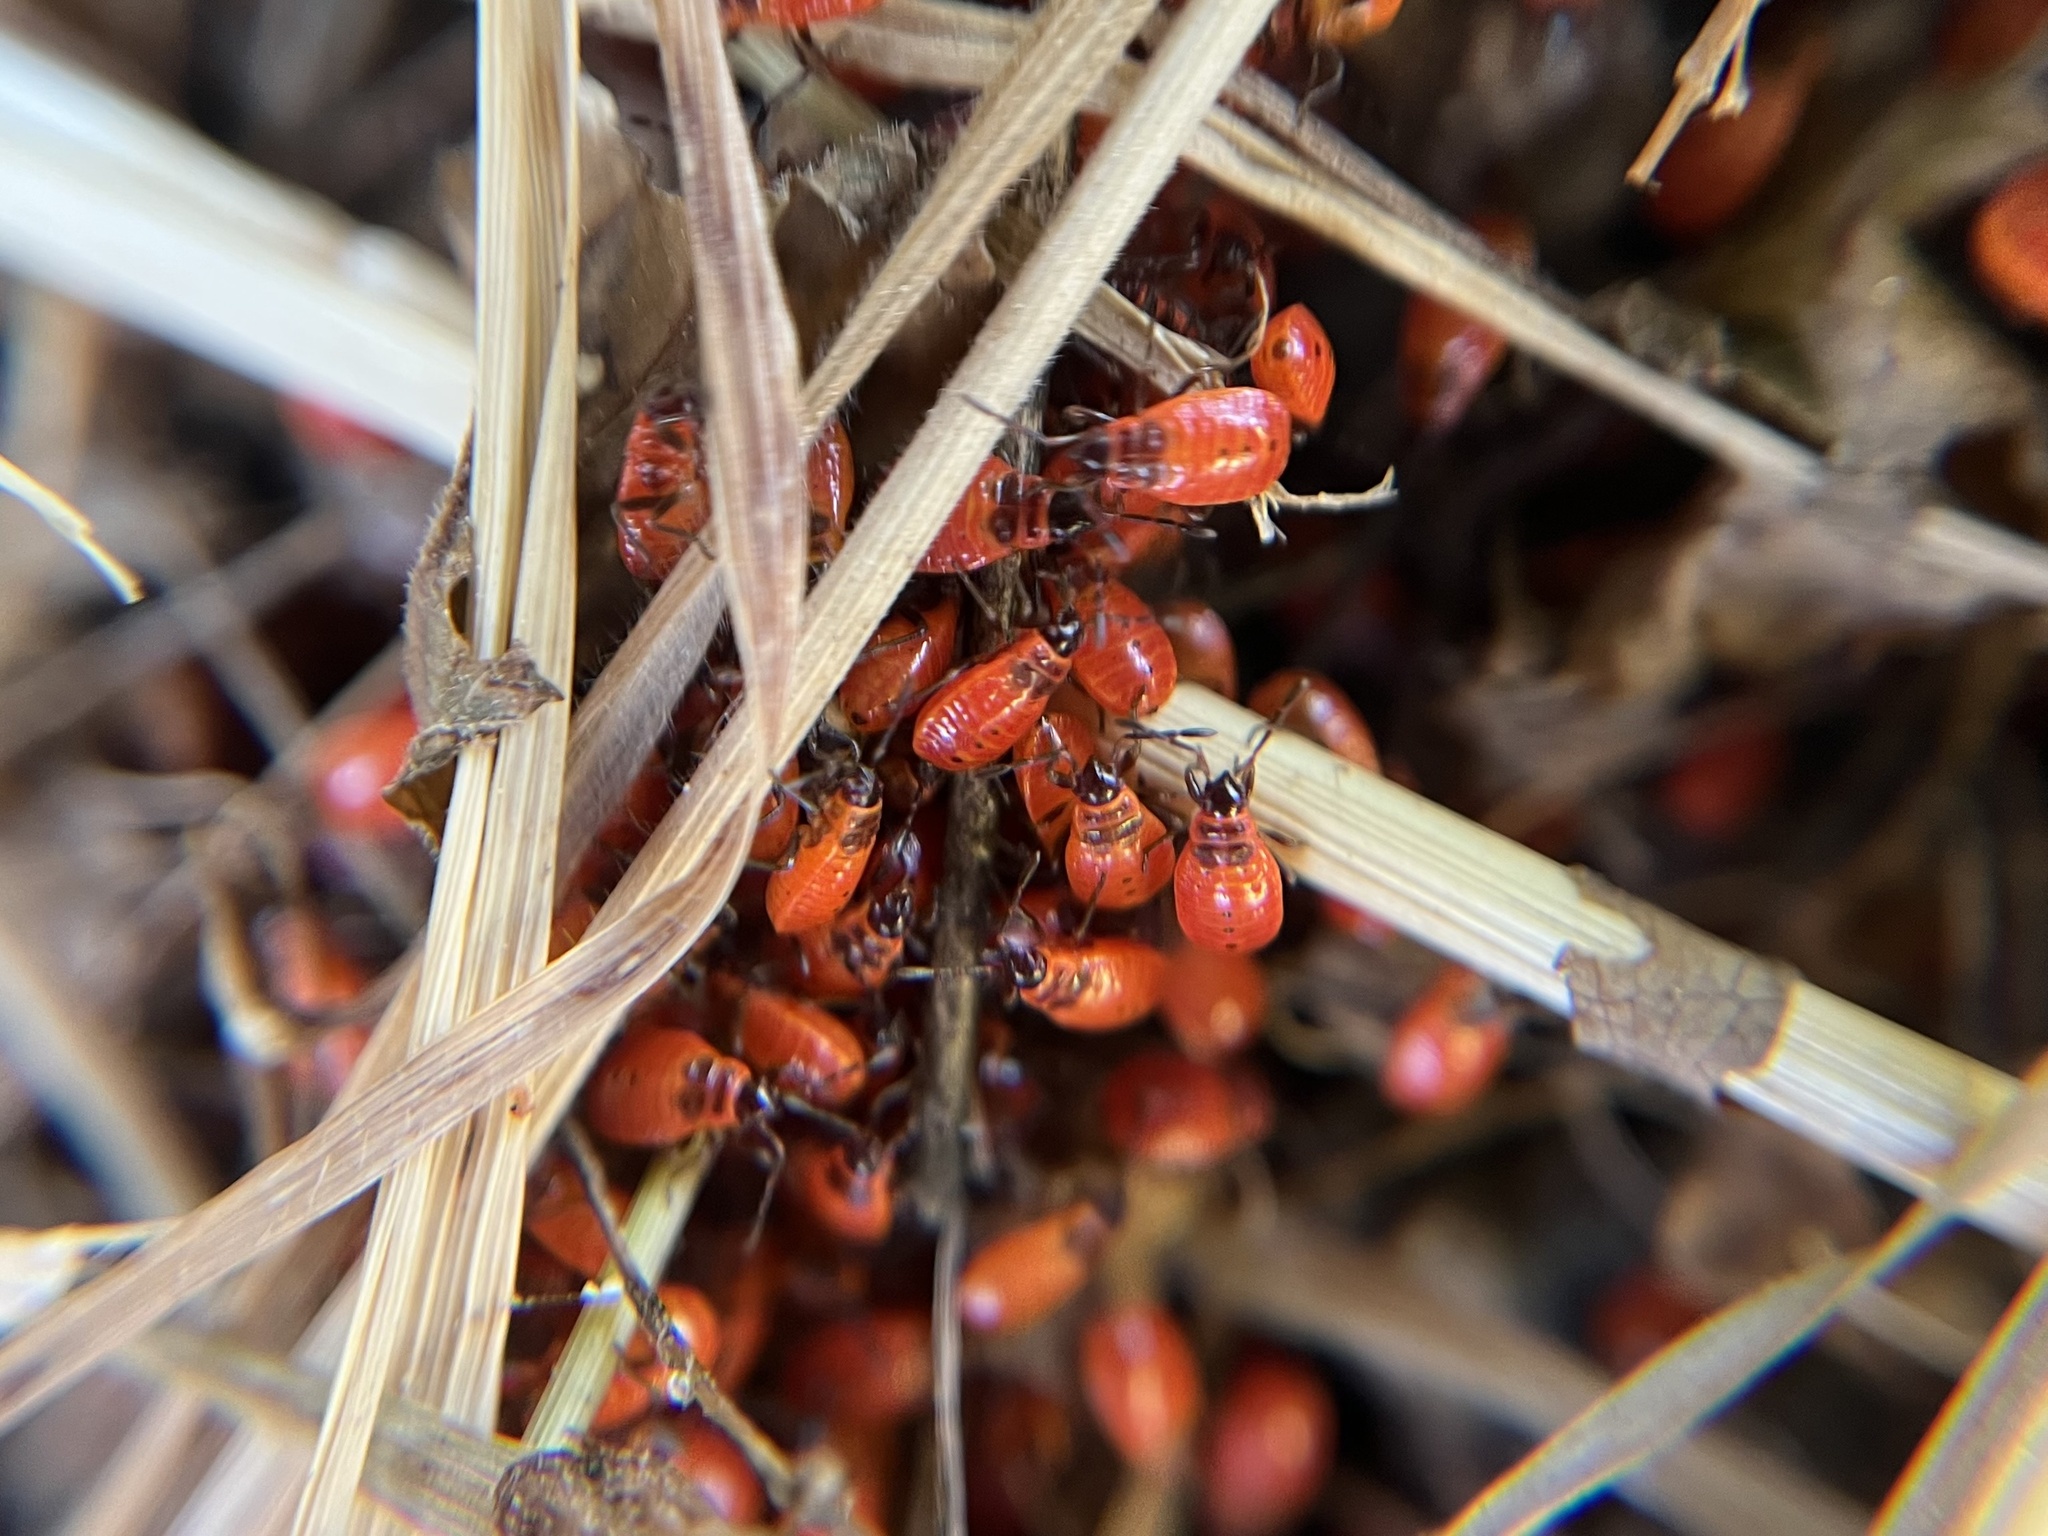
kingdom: Animalia
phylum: Arthropoda
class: Insecta
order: Hemiptera
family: Pyrrhocoridae
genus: Pyrrhocoris
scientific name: Pyrrhocoris apterus
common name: Firebug
